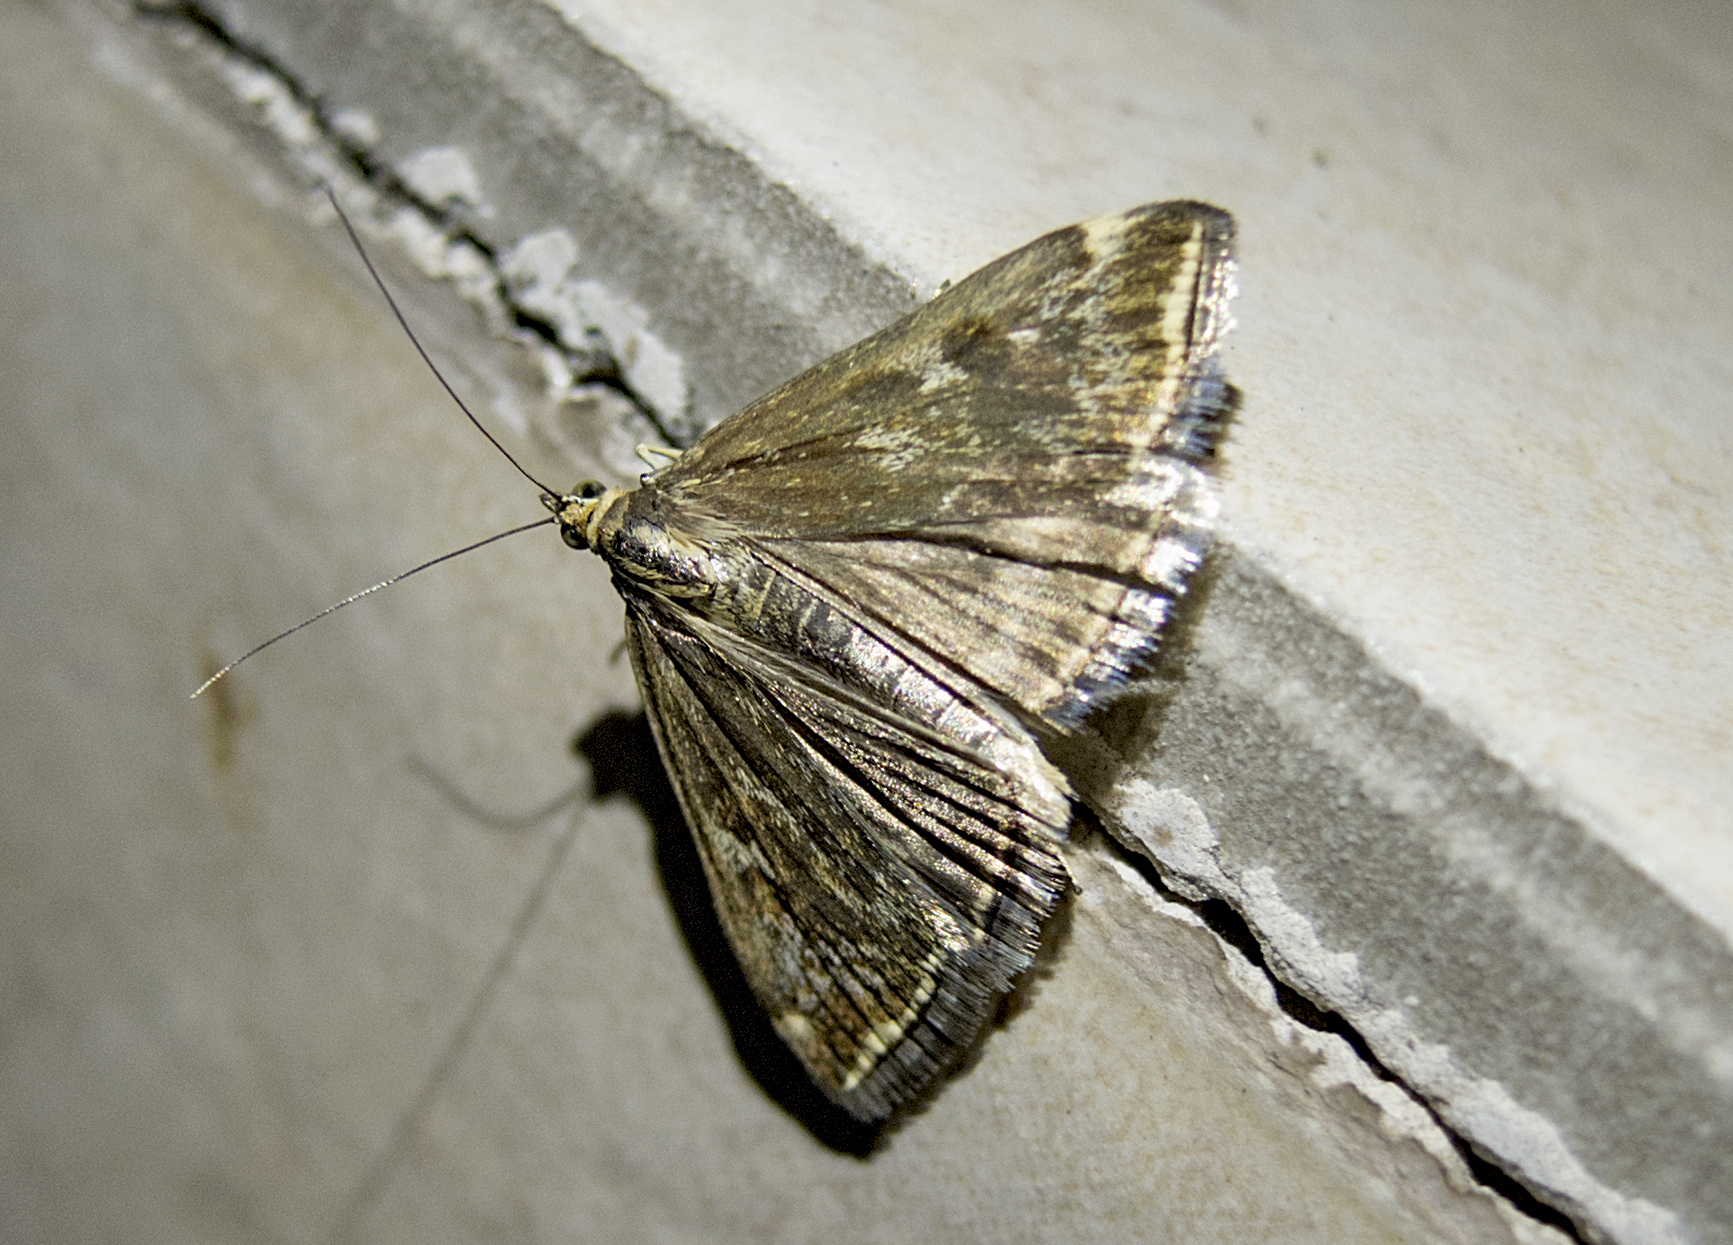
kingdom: Animalia
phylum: Arthropoda
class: Insecta
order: Lepidoptera
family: Crambidae
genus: Loxostege
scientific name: Loxostege sticticalis
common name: Crambid moth
